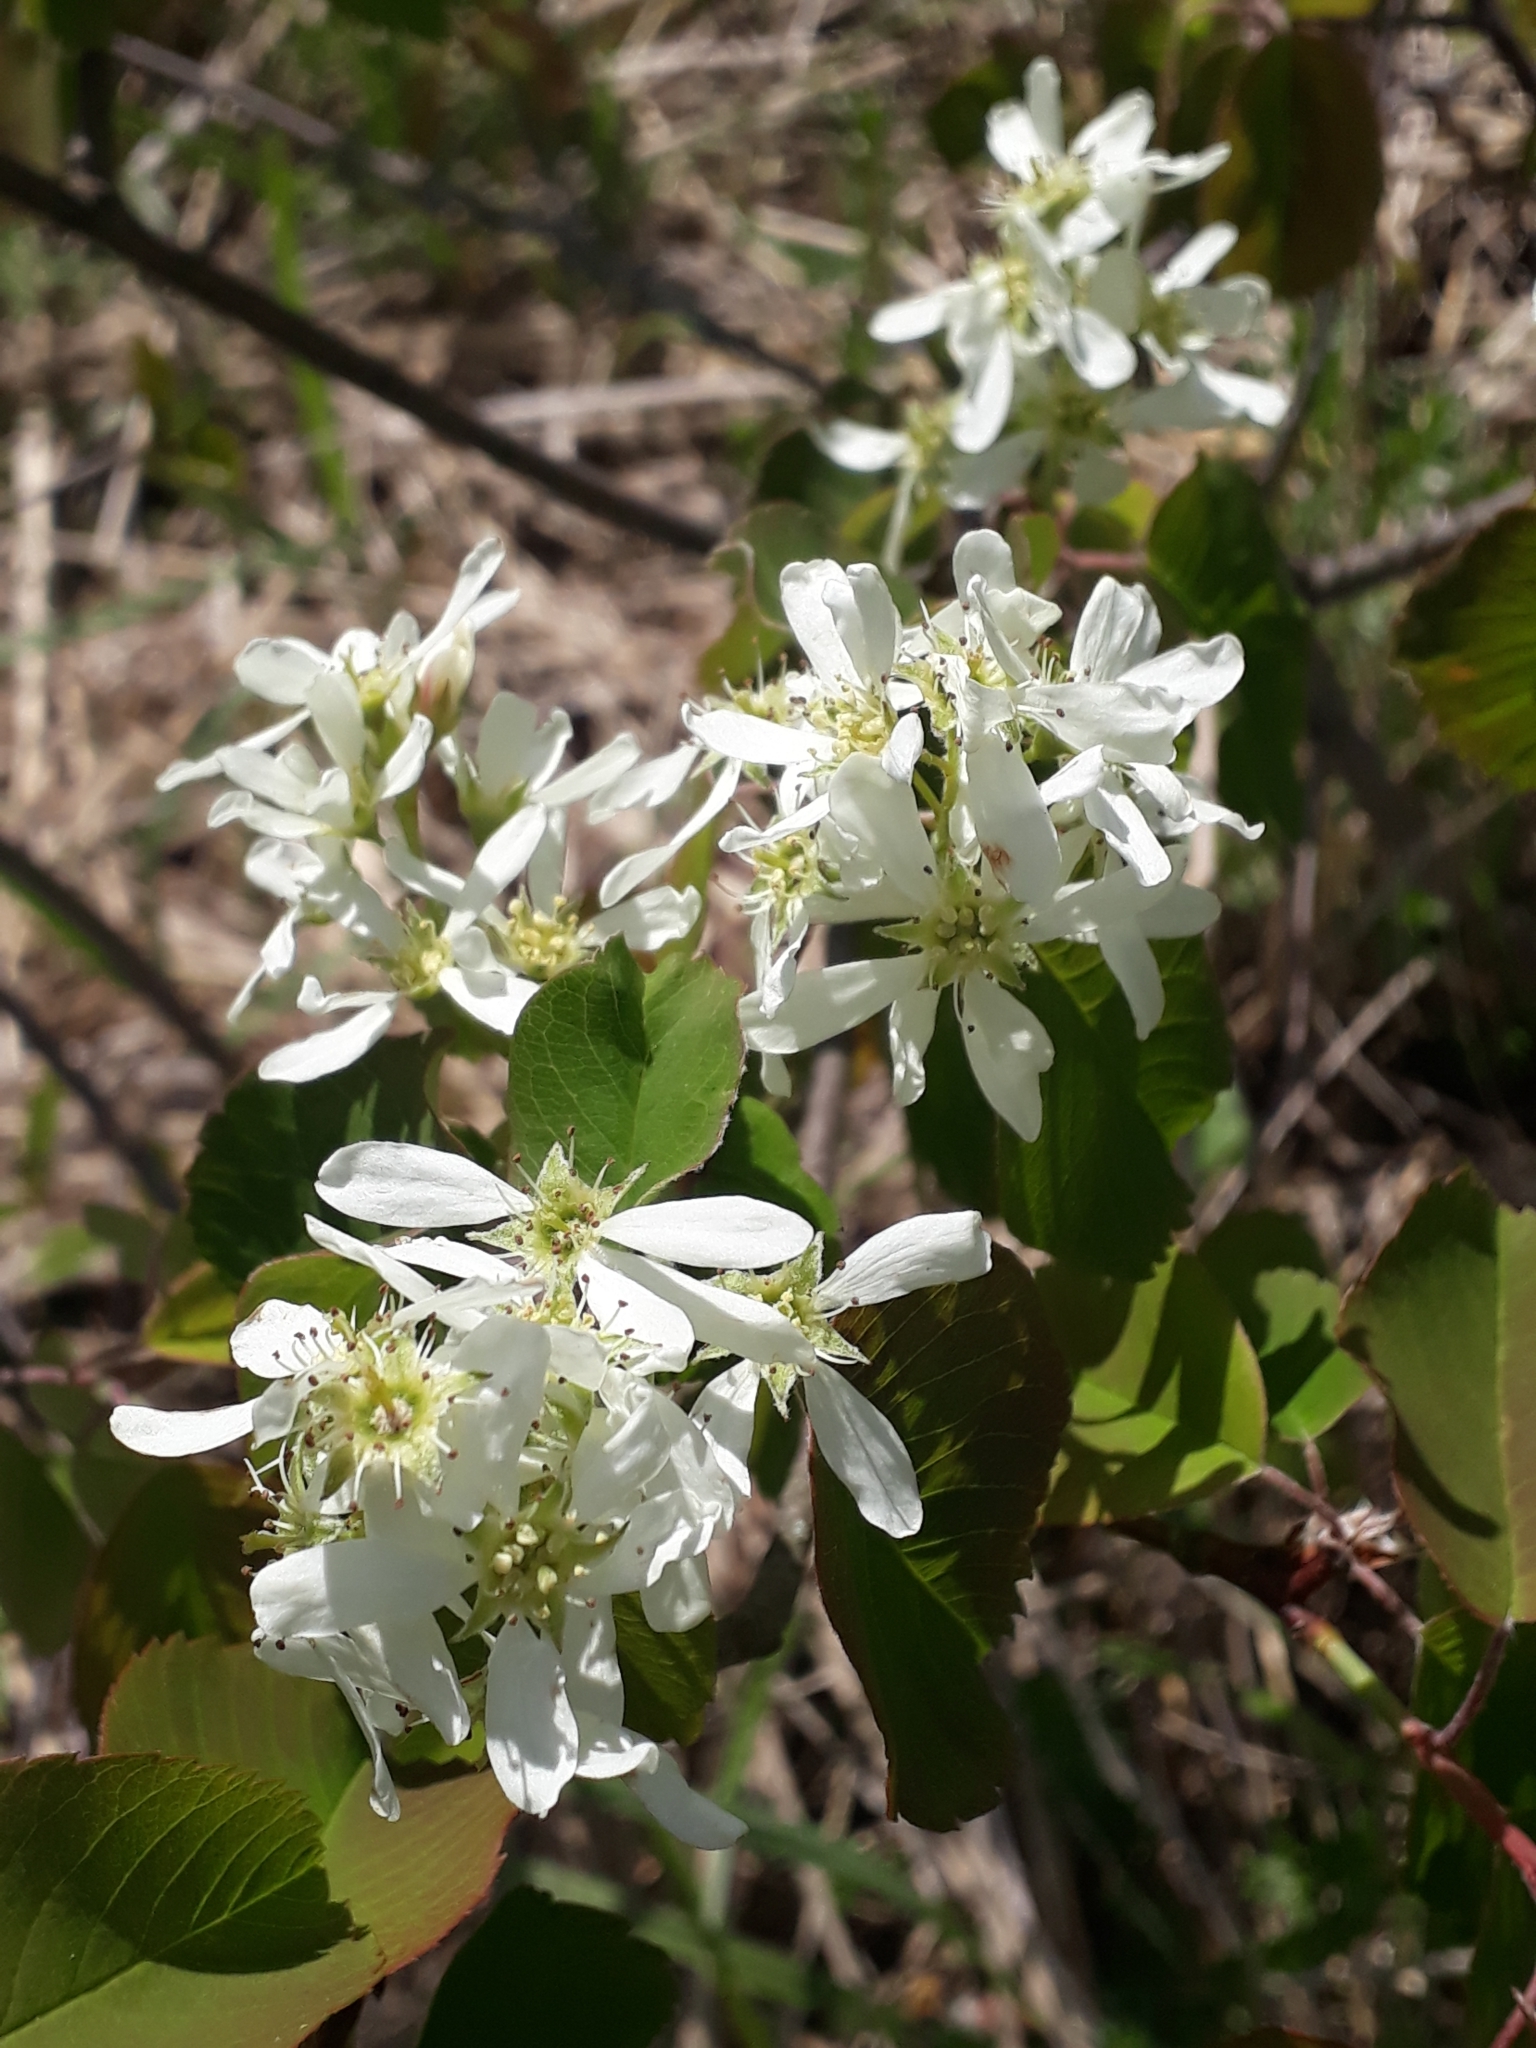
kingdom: Plantae
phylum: Tracheophyta
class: Magnoliopsida
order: Rosales
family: Rosaceae
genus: Amelanchier
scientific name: Amelanchier alnifolia
